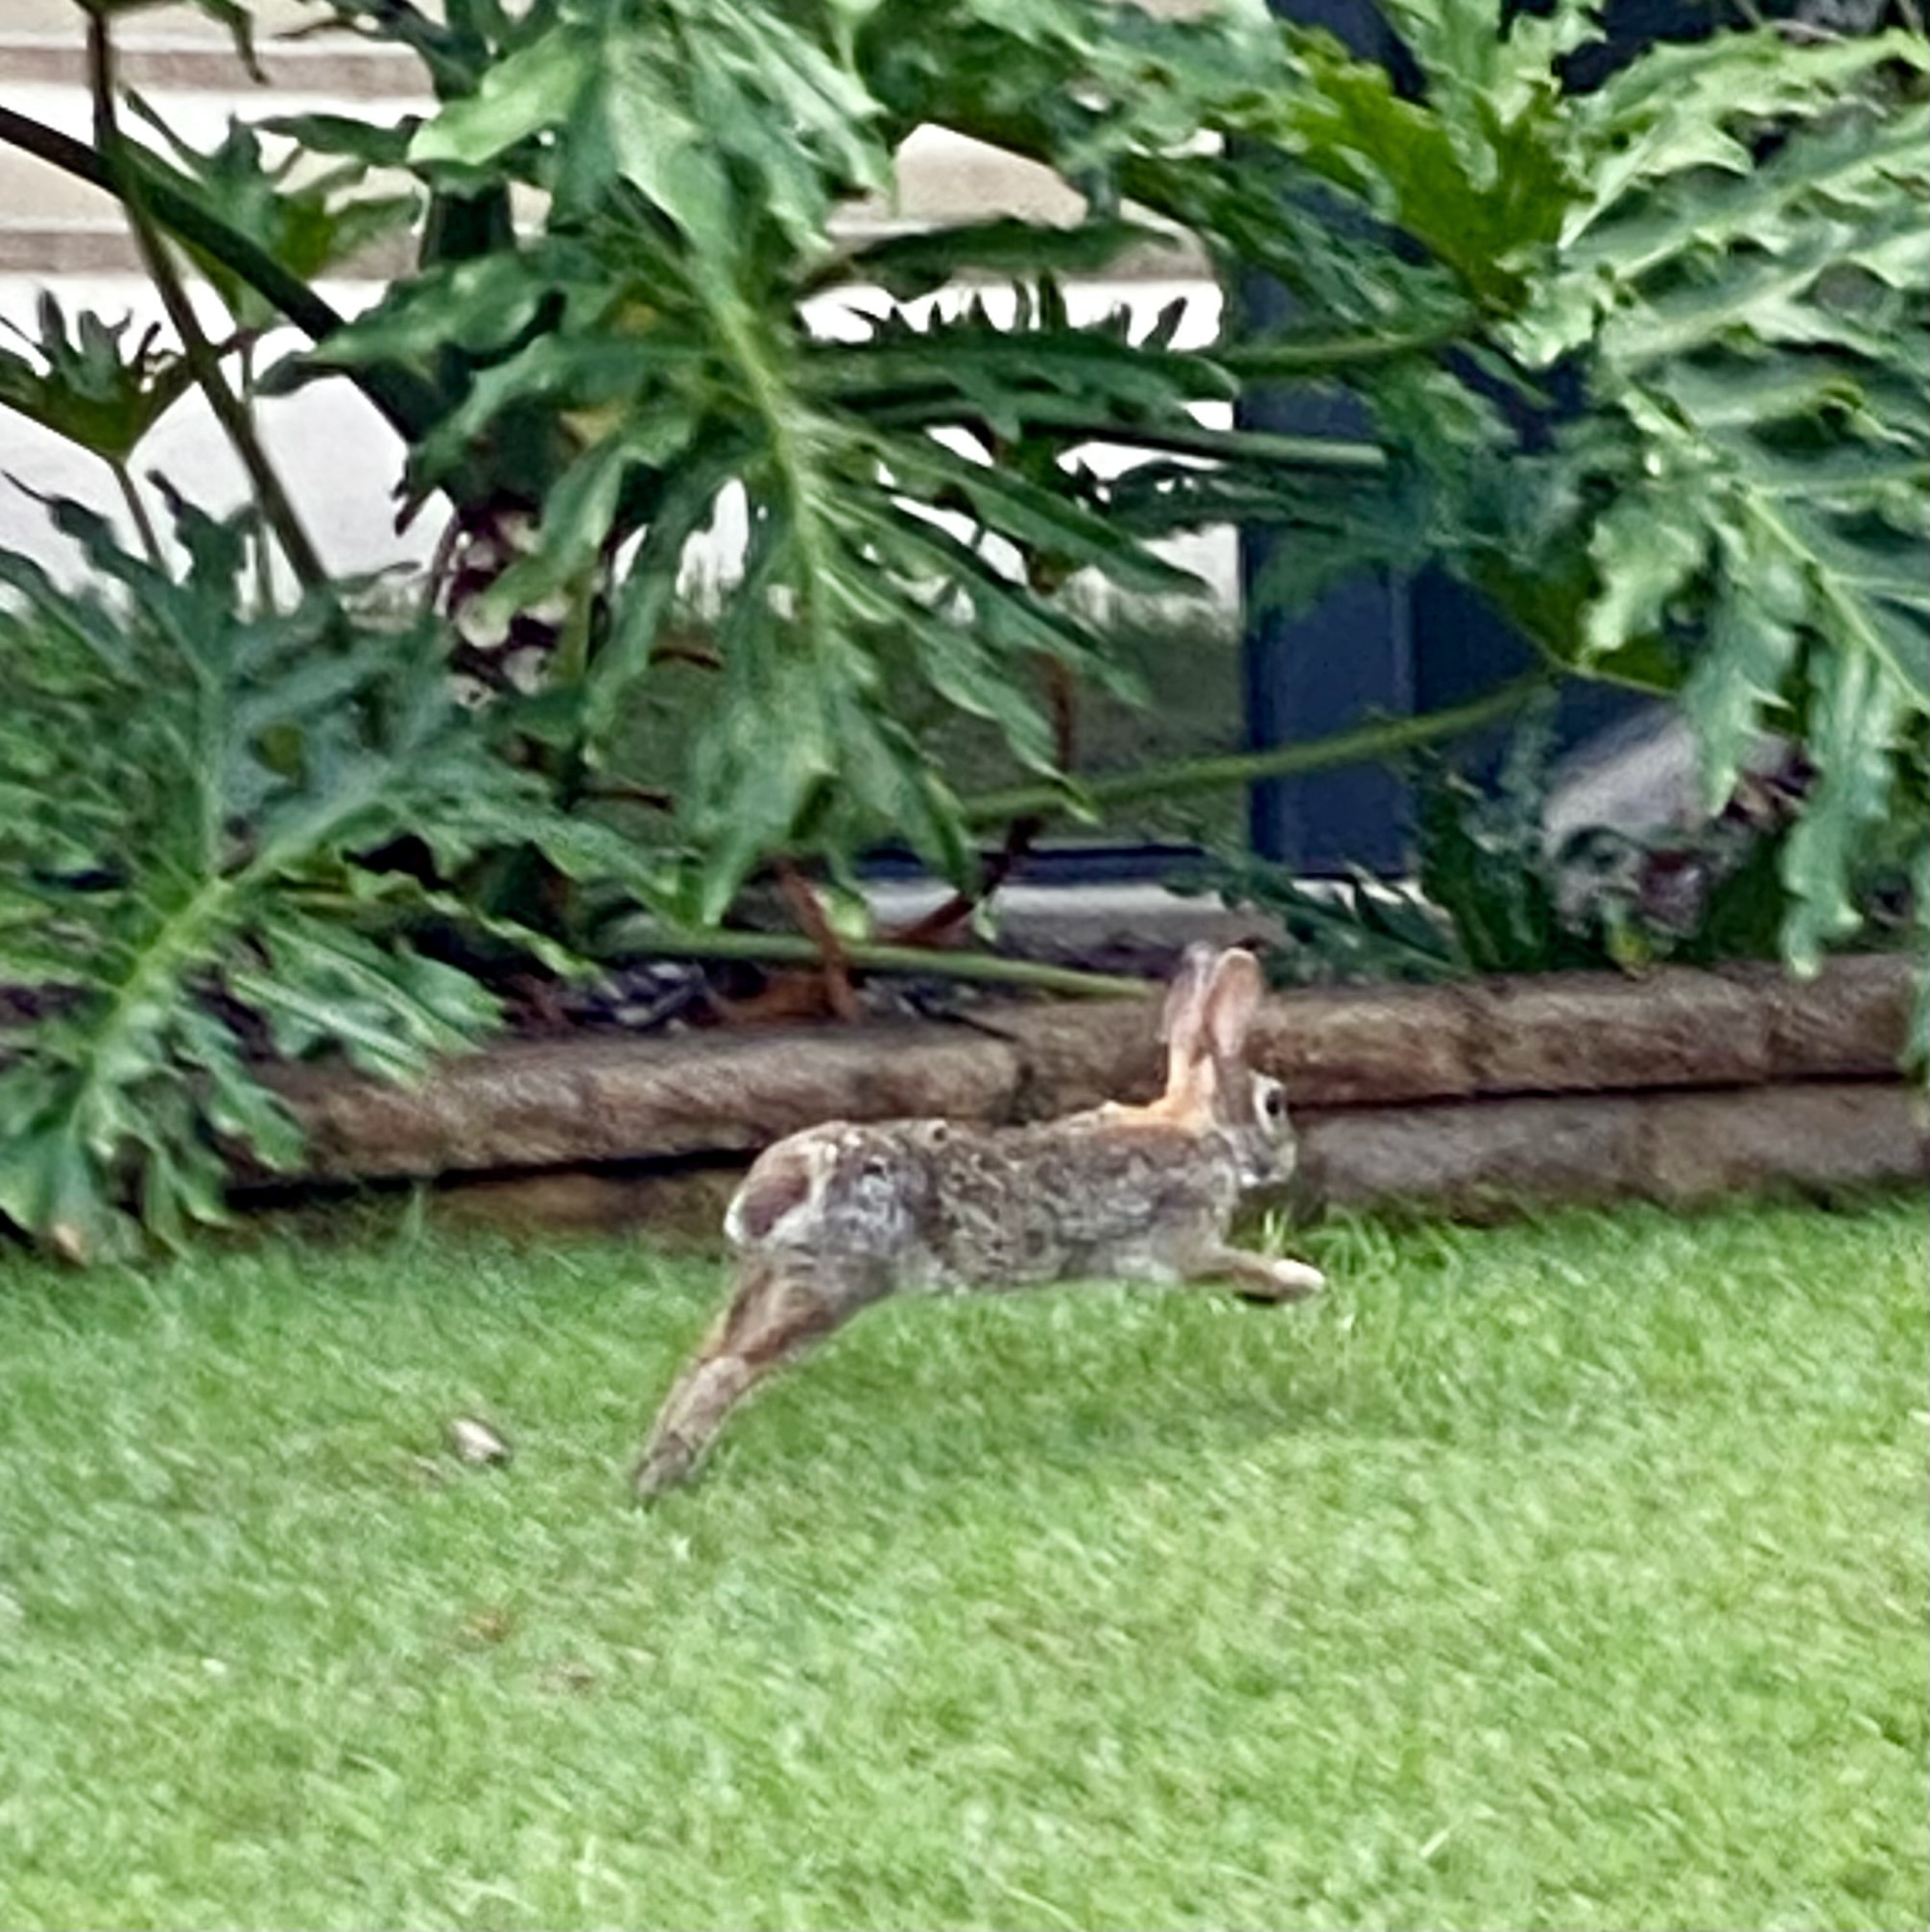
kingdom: Animalia
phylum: Chordata
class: Mammalia
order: Lagomorpha
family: Leporidae
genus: Sylvilagus
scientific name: Sylvilagus floridanus
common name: Eastern cottontail
